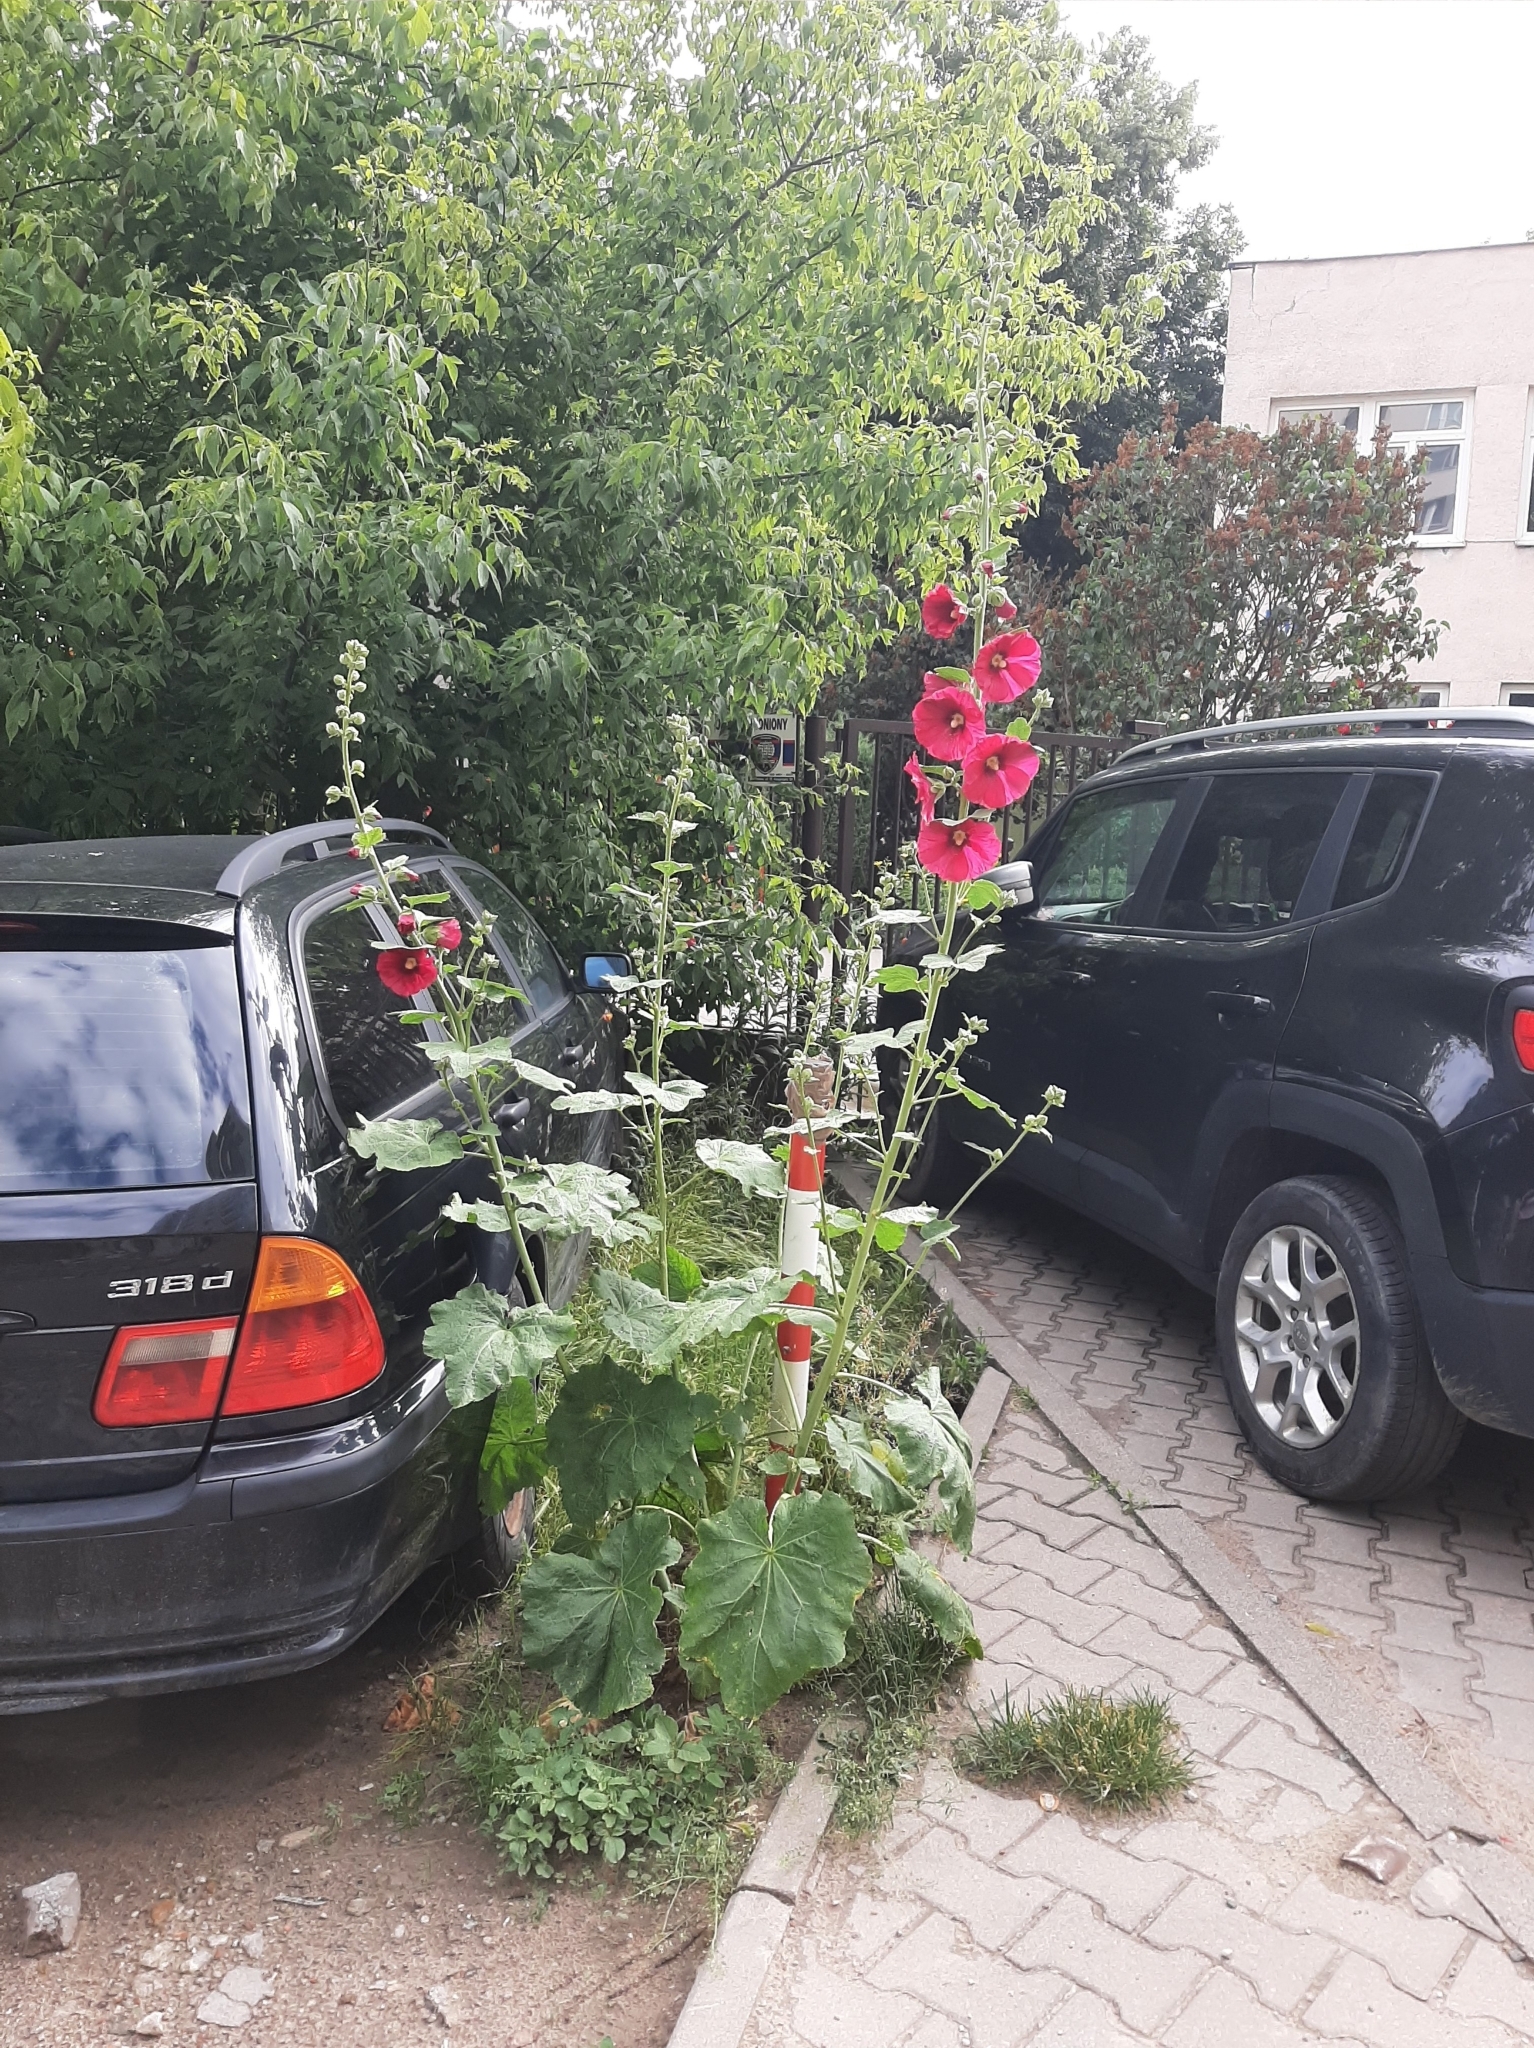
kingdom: Plantae
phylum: Tracheophyta
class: Magnoliopsida
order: Malvales
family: Malvaceae
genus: Alcea
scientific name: Alcea rosea
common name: Hollyhock
